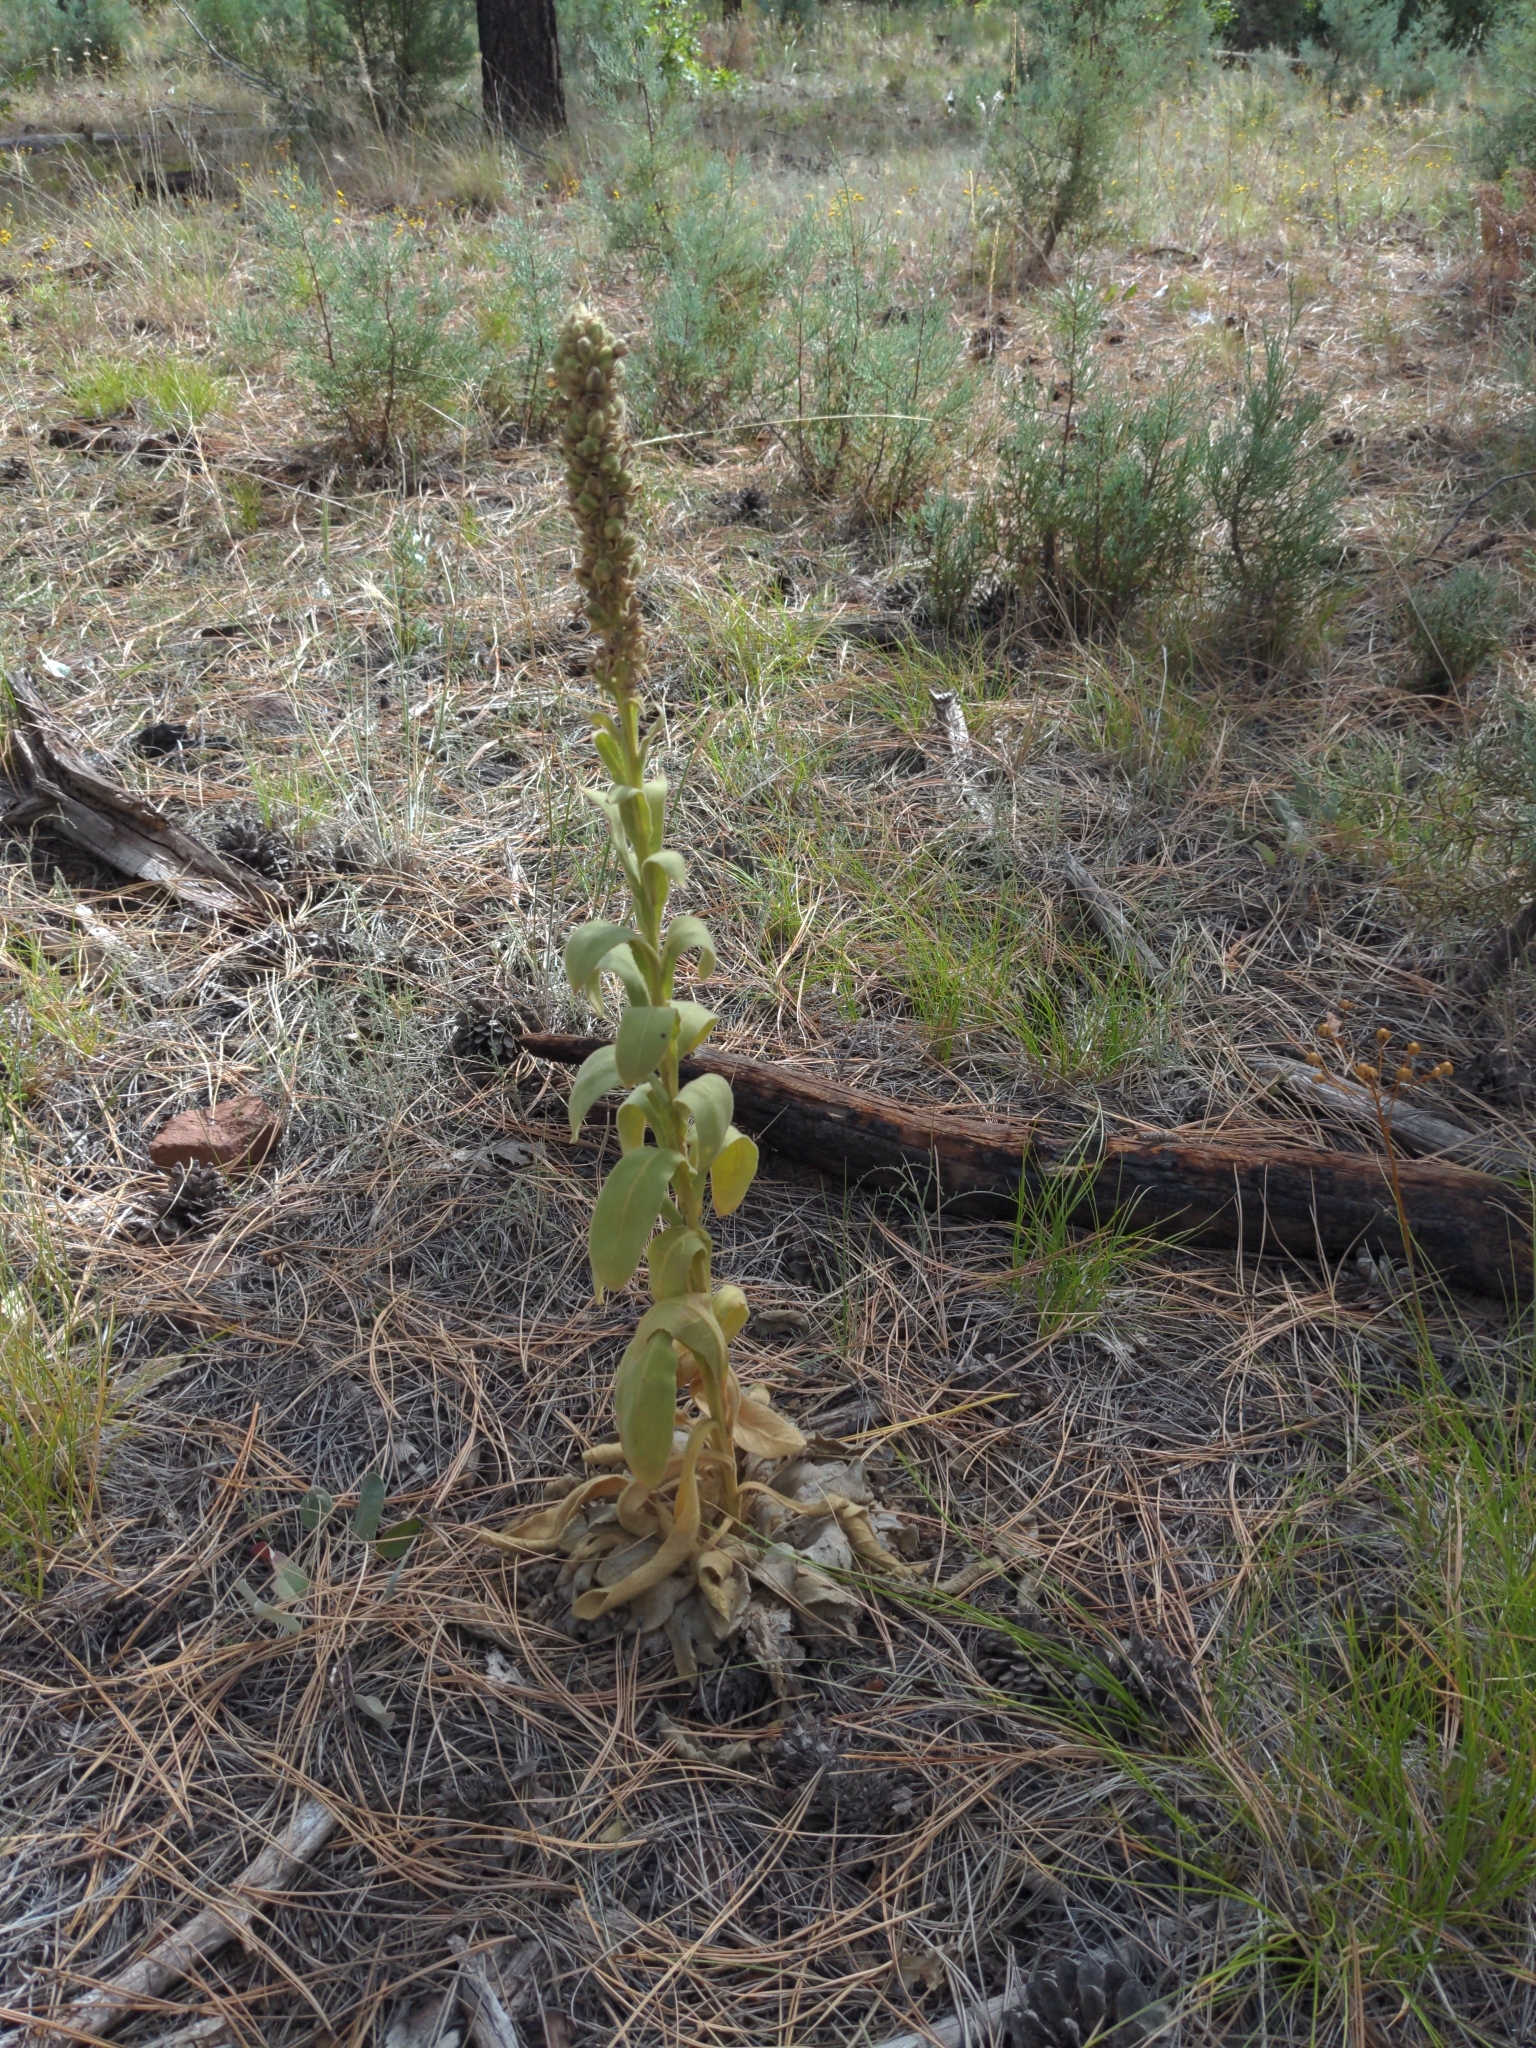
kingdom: Plantae
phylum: Tracheophyta
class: Magnoliopsida
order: Lamiales
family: Scrophulariaceae
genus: Verbascum
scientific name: Verbascum thapsus
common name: Common mullein
